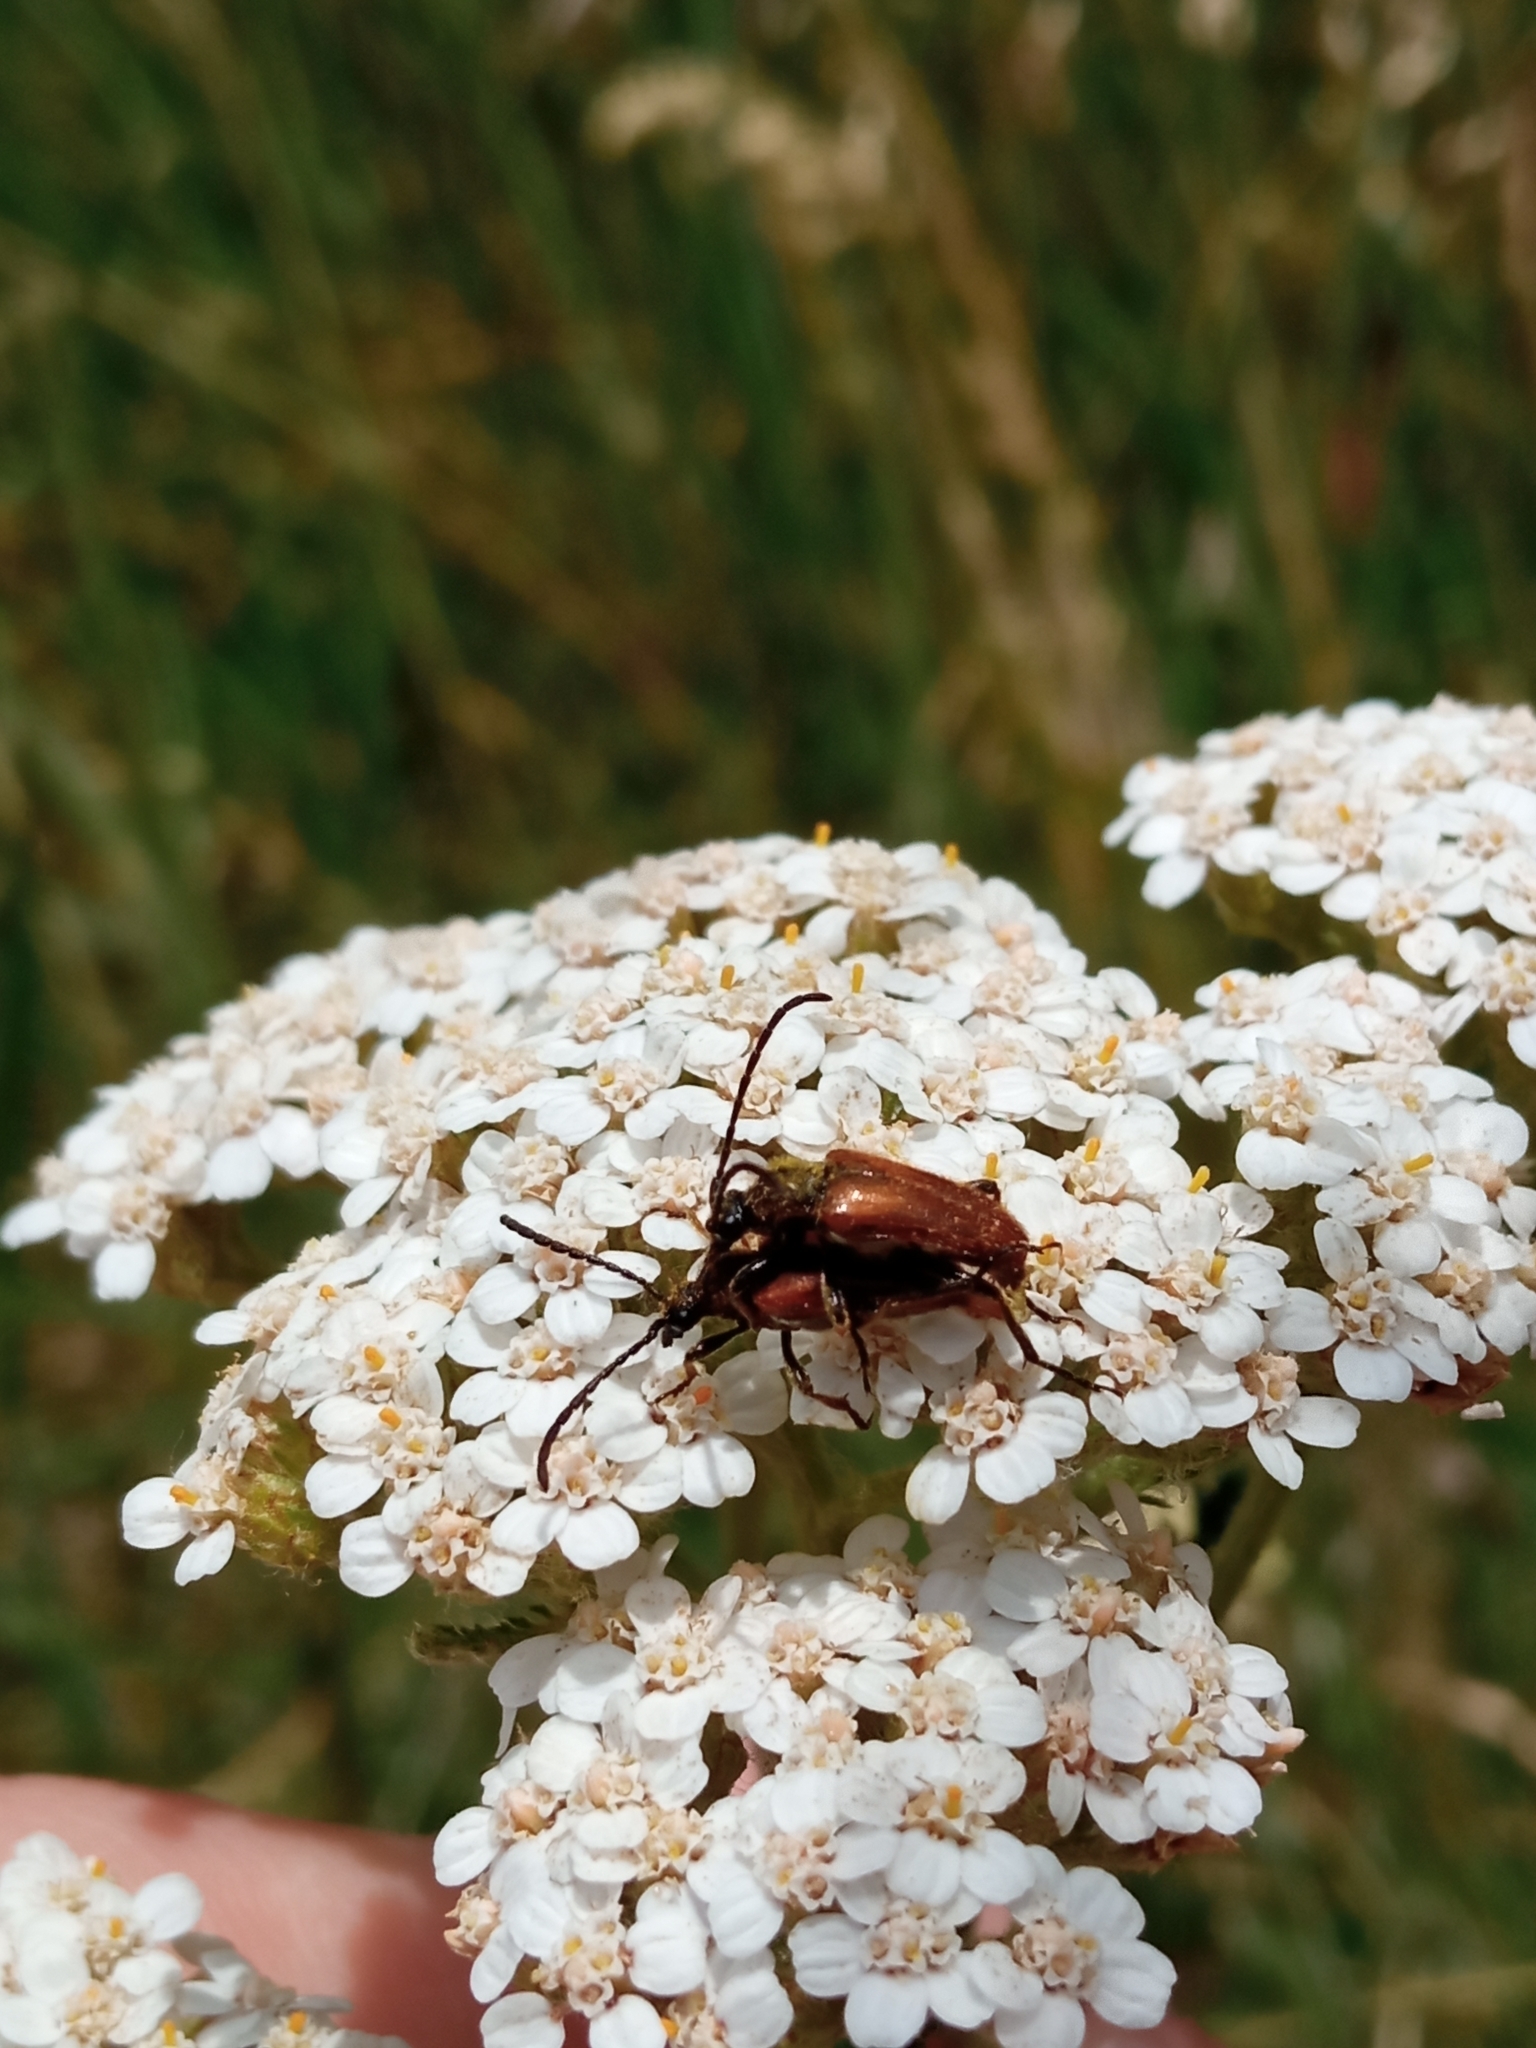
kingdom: Animalia
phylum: Arthropoda
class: Insecta
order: Coleoptera
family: Cerambycidae
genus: Pseudovadonia
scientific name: Pseudovadonia livida
